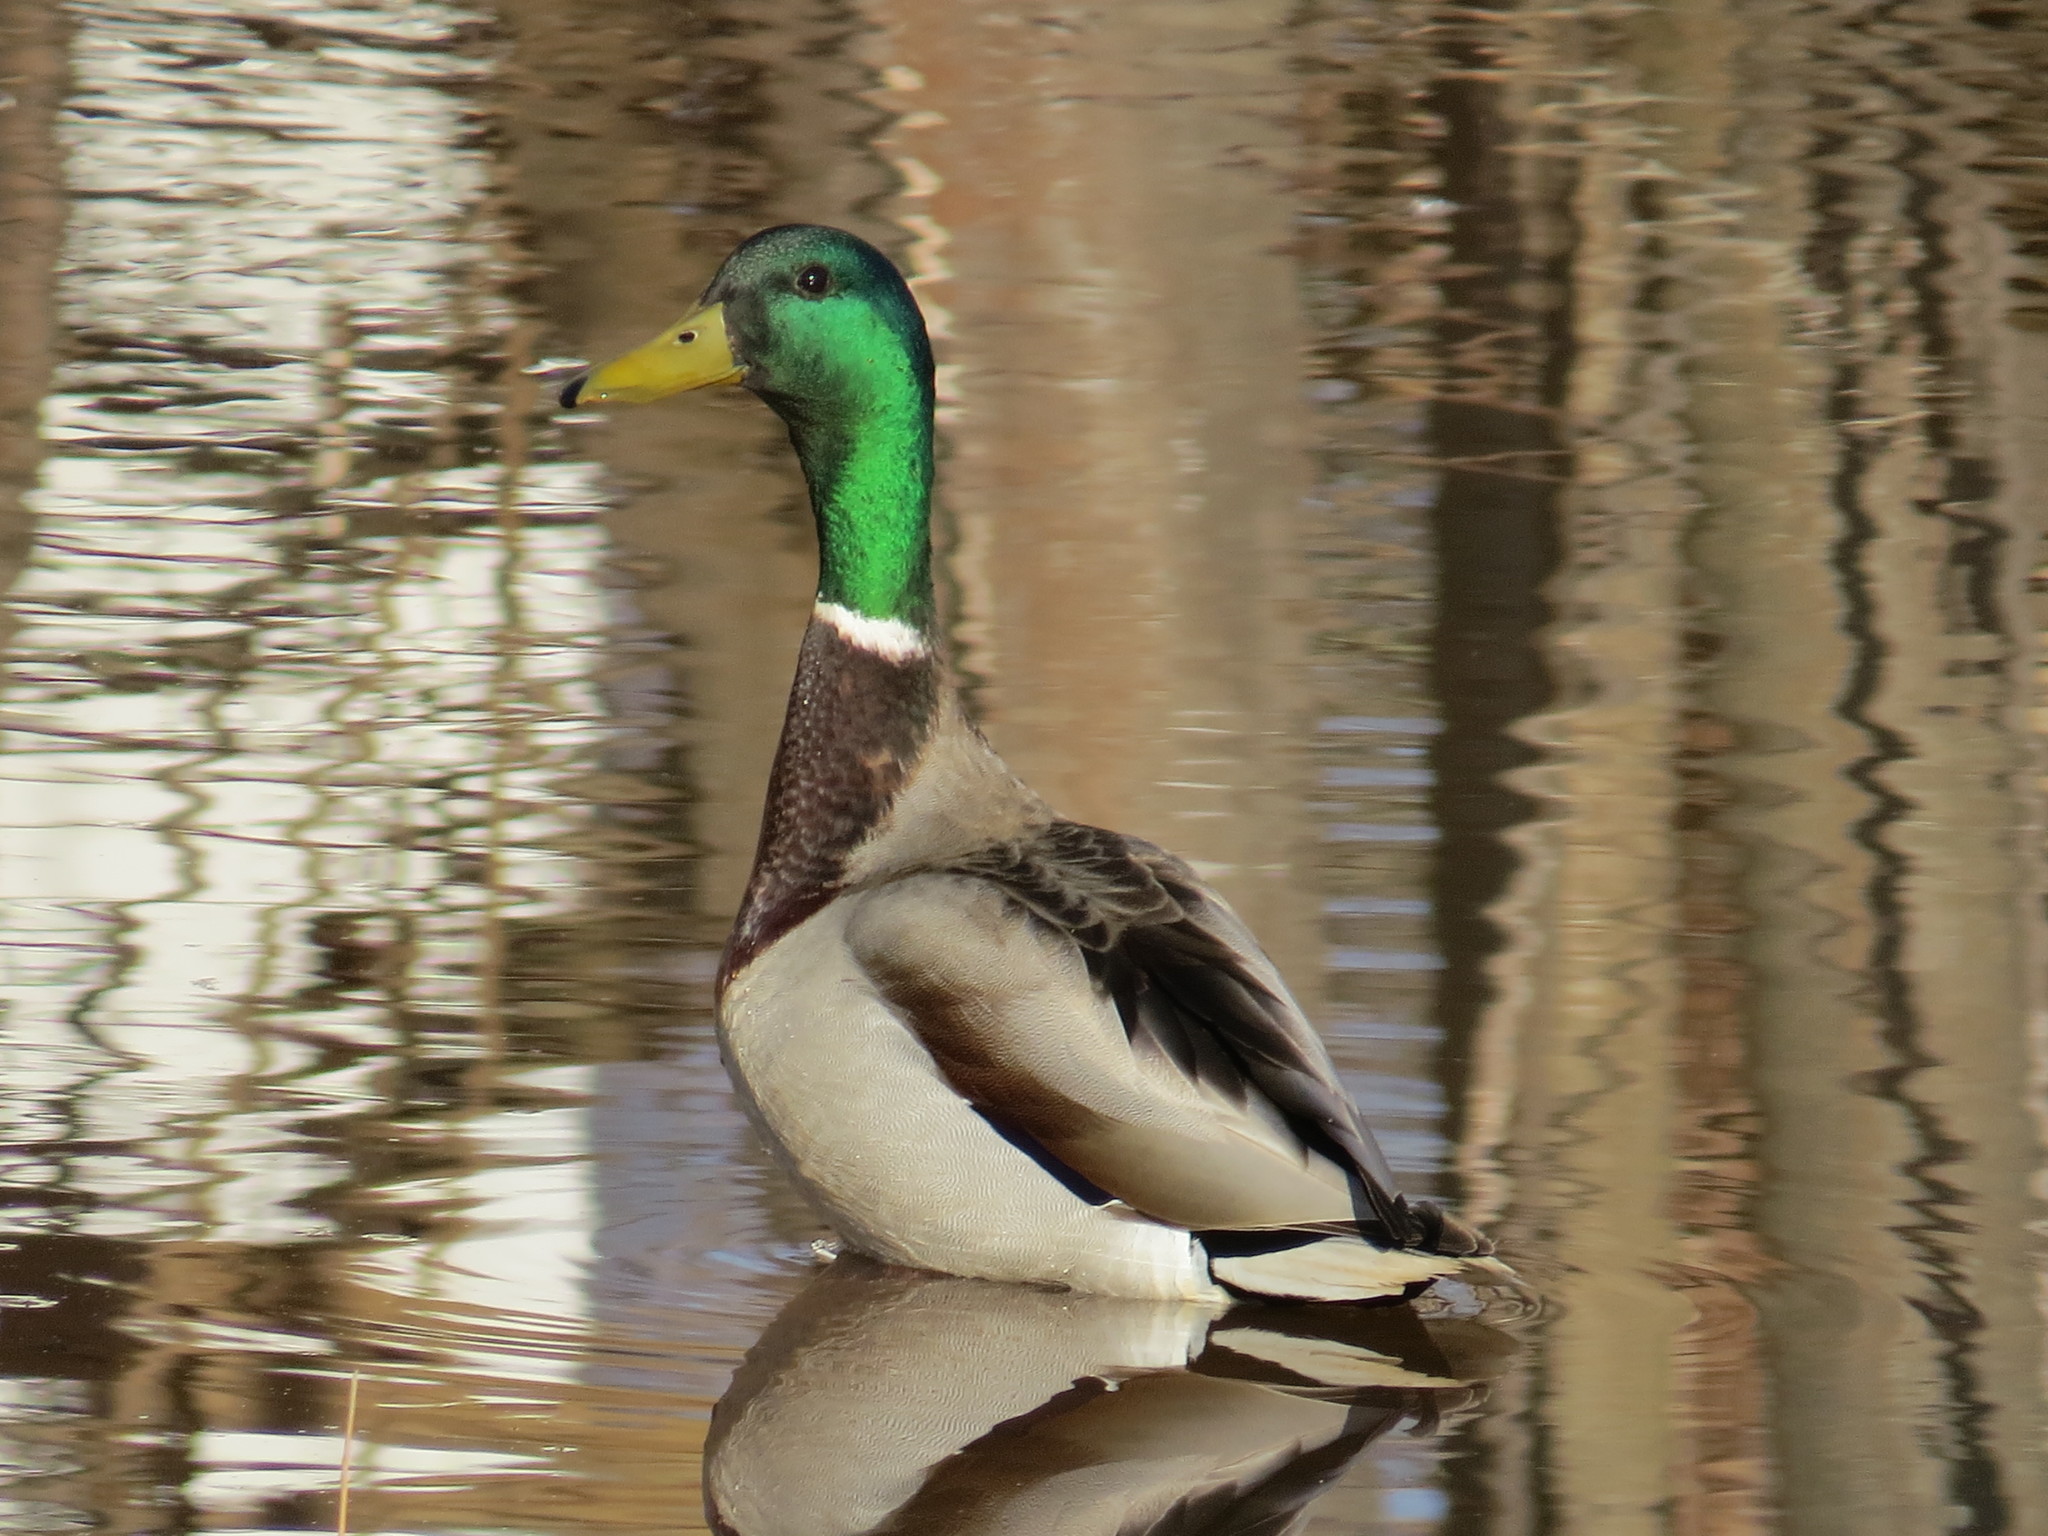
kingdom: Animalia
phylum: Chordata
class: Aves
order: Anseriformes
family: Anatidae
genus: Anas
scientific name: Anas platyrhynchos
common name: Mallard
